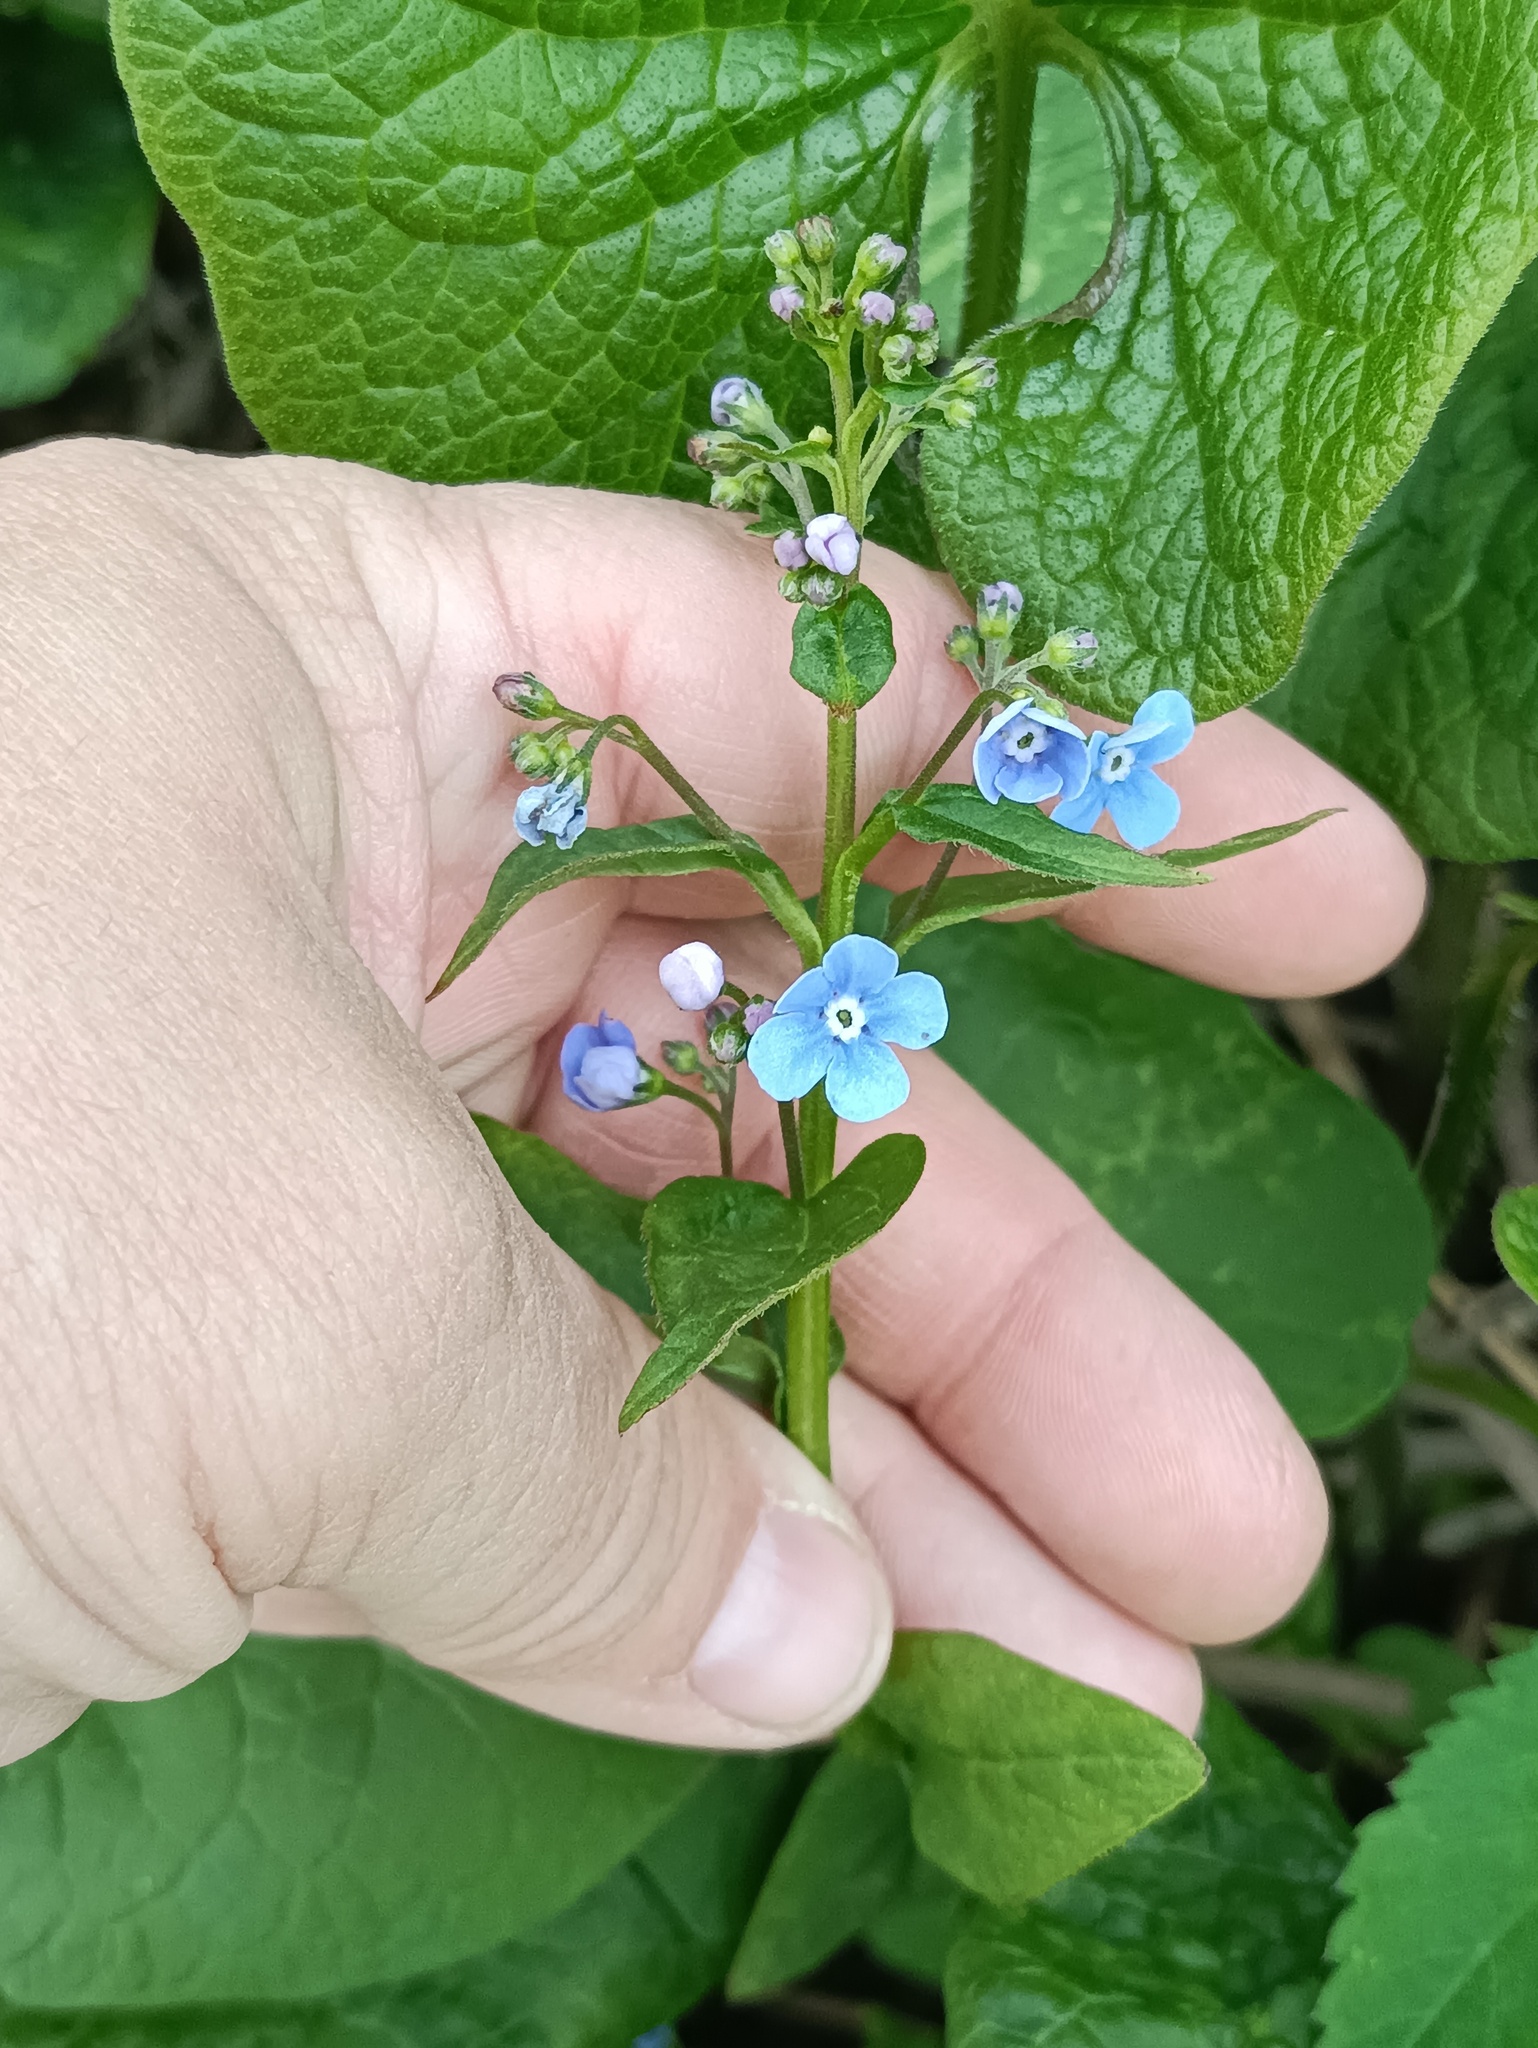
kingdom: Plantae
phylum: Tracheophyta
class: Magnoliopsida
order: Boraginales
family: Boraginaceae
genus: Brunnera
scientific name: Brunnera sibirica
